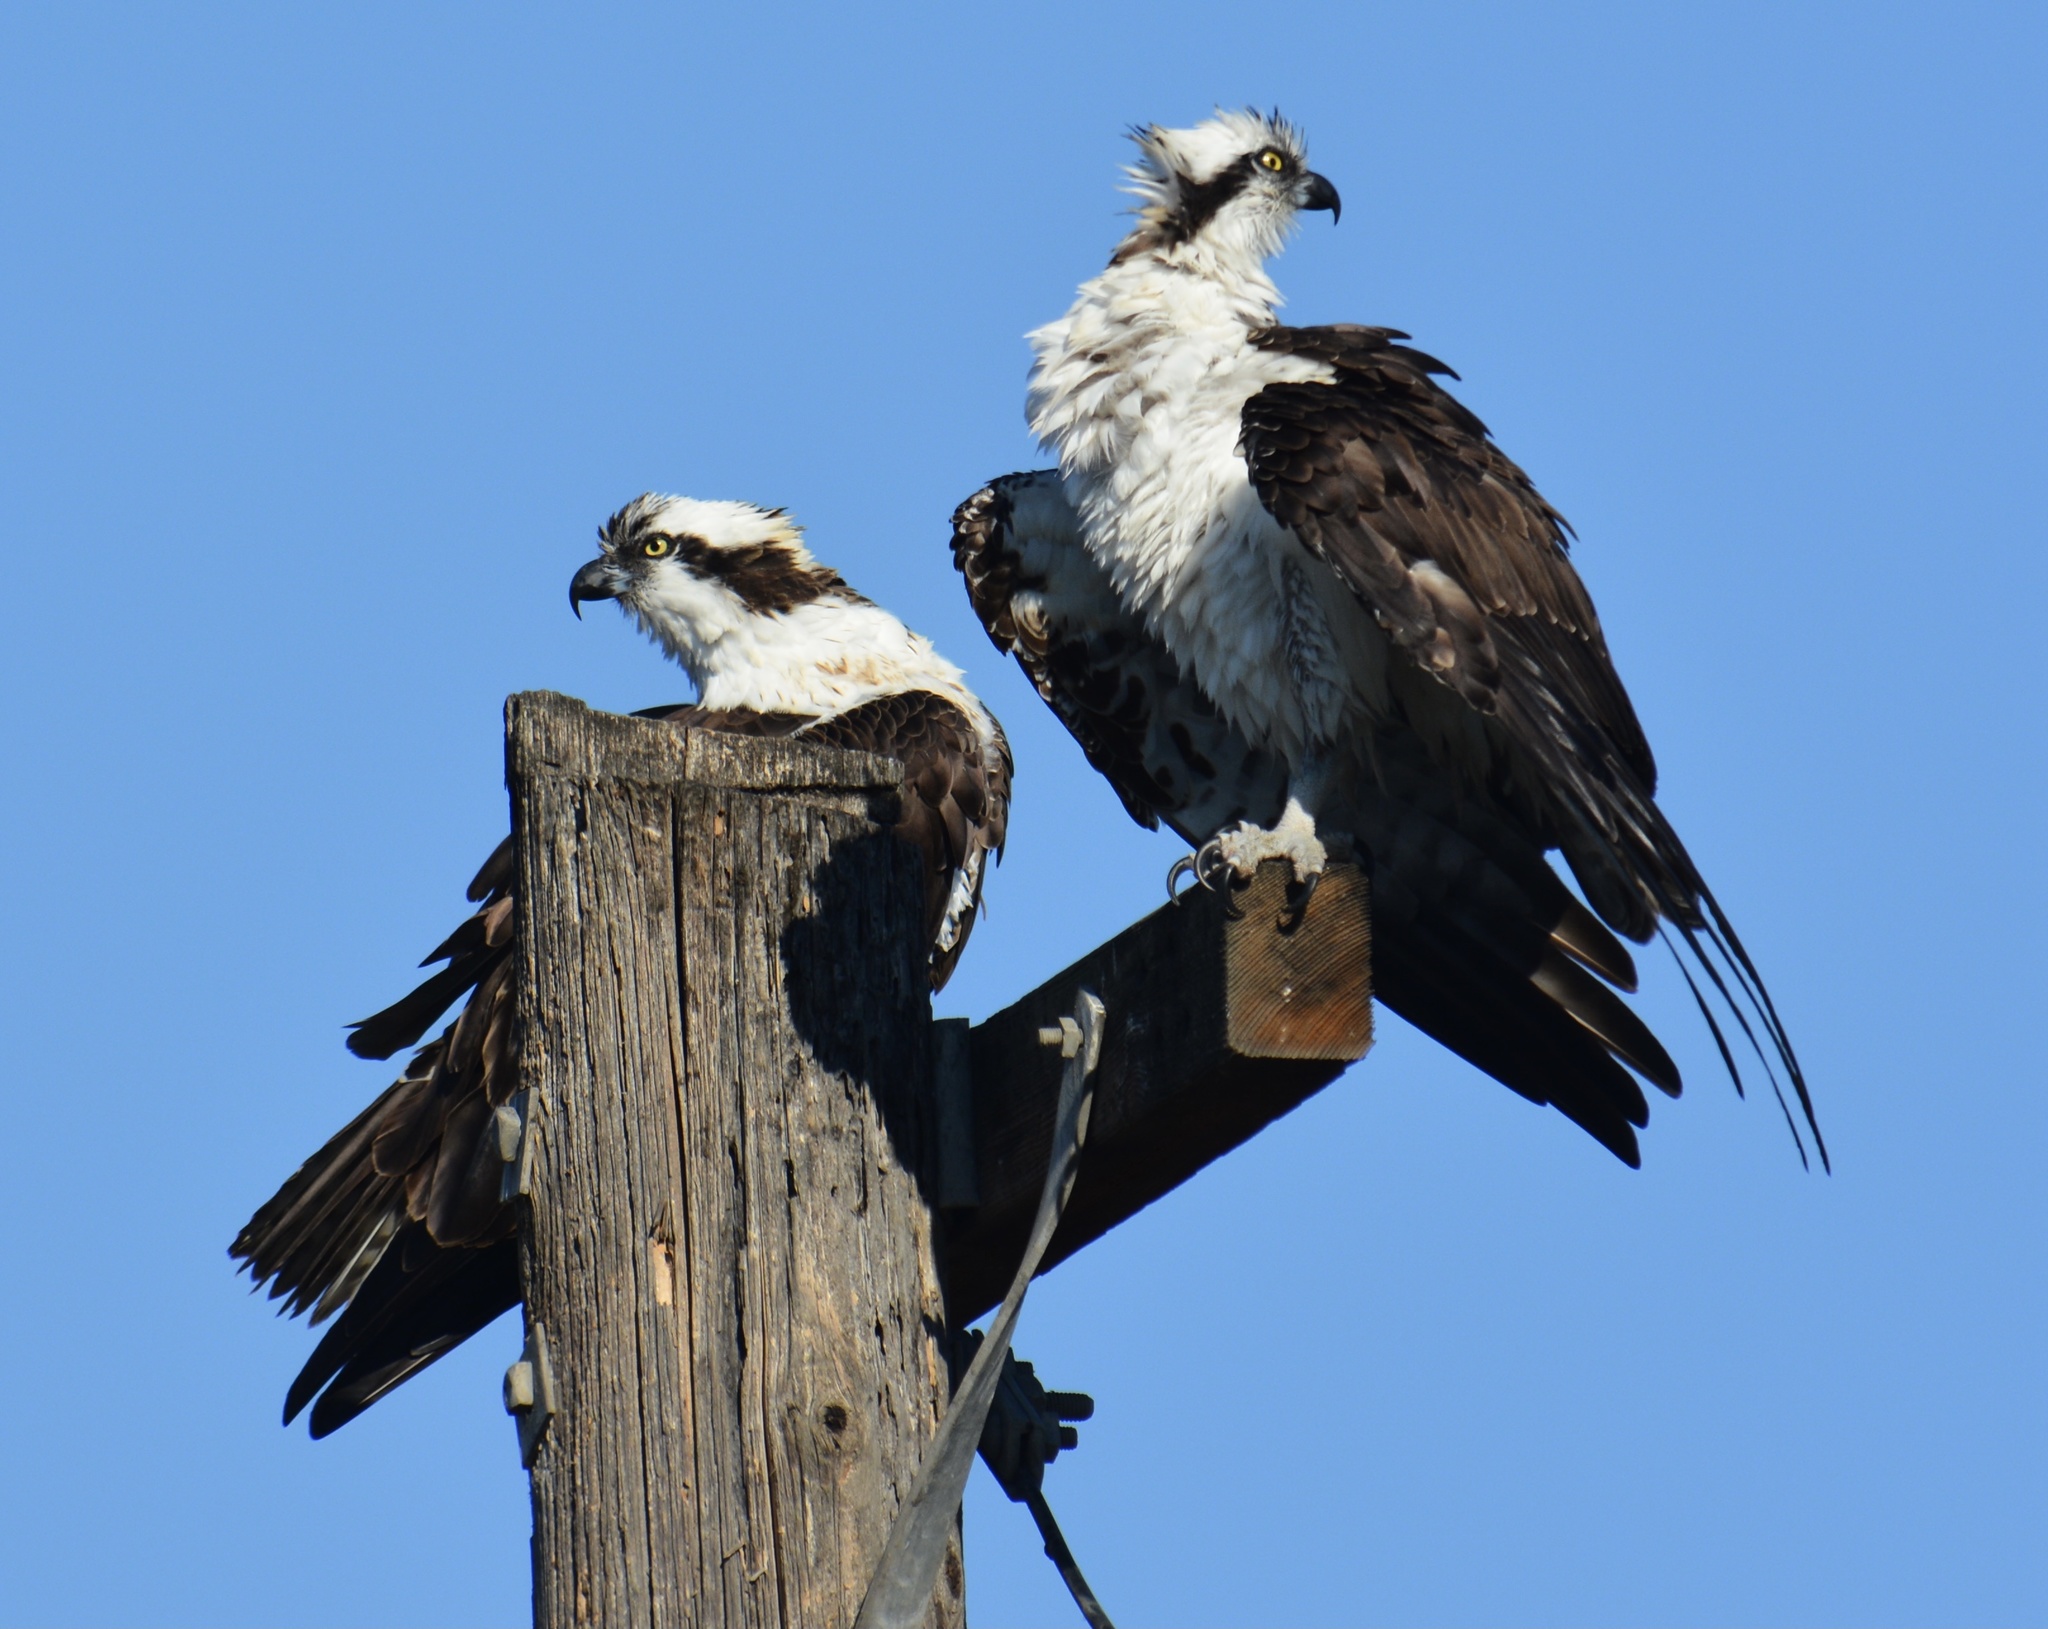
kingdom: Animalia
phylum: Chordata
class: Aves
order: Accipitriformes
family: Pandionidae
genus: Pandion
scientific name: Pandion haliaetus
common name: Osprey
